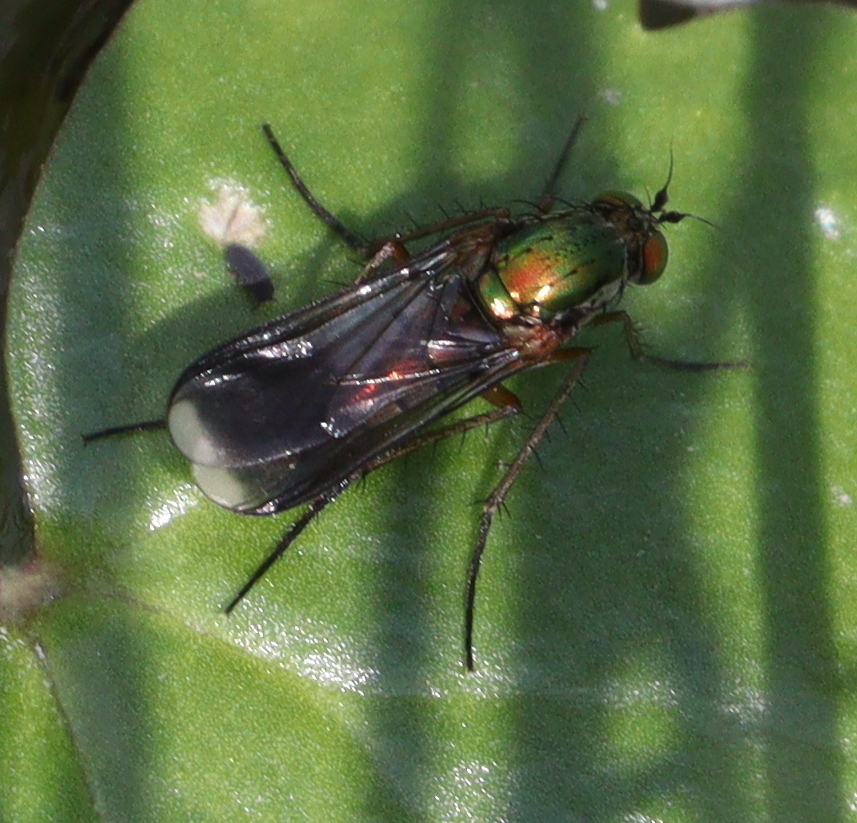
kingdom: Animalia
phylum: Arthropoda
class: Insecta
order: Diptera
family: Dolichopodidae
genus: Poecilobothrus
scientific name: Poecilobothrus nobilitatus
